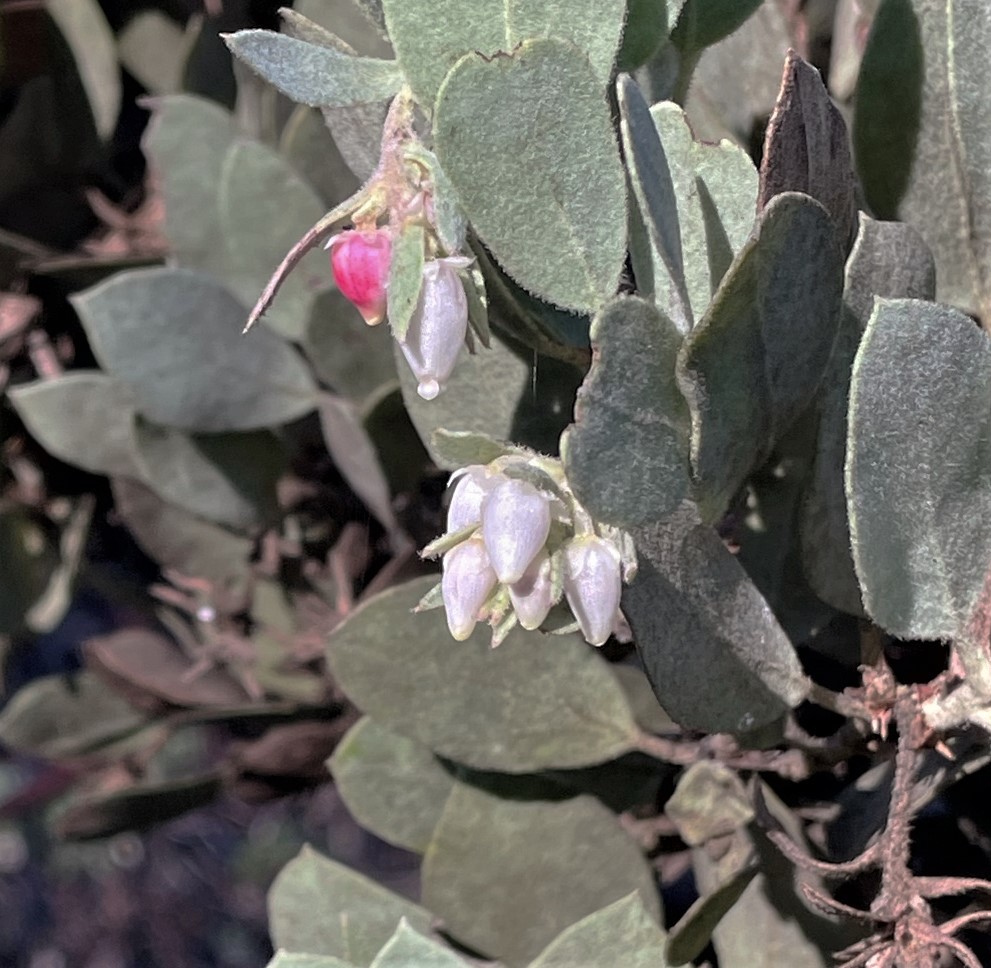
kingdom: Plantae
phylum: Tracheophyta
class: Magnoliopsida
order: Ericales
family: Ericaceae
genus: Arctostaphylos
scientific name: Arctostaphylos canescens
